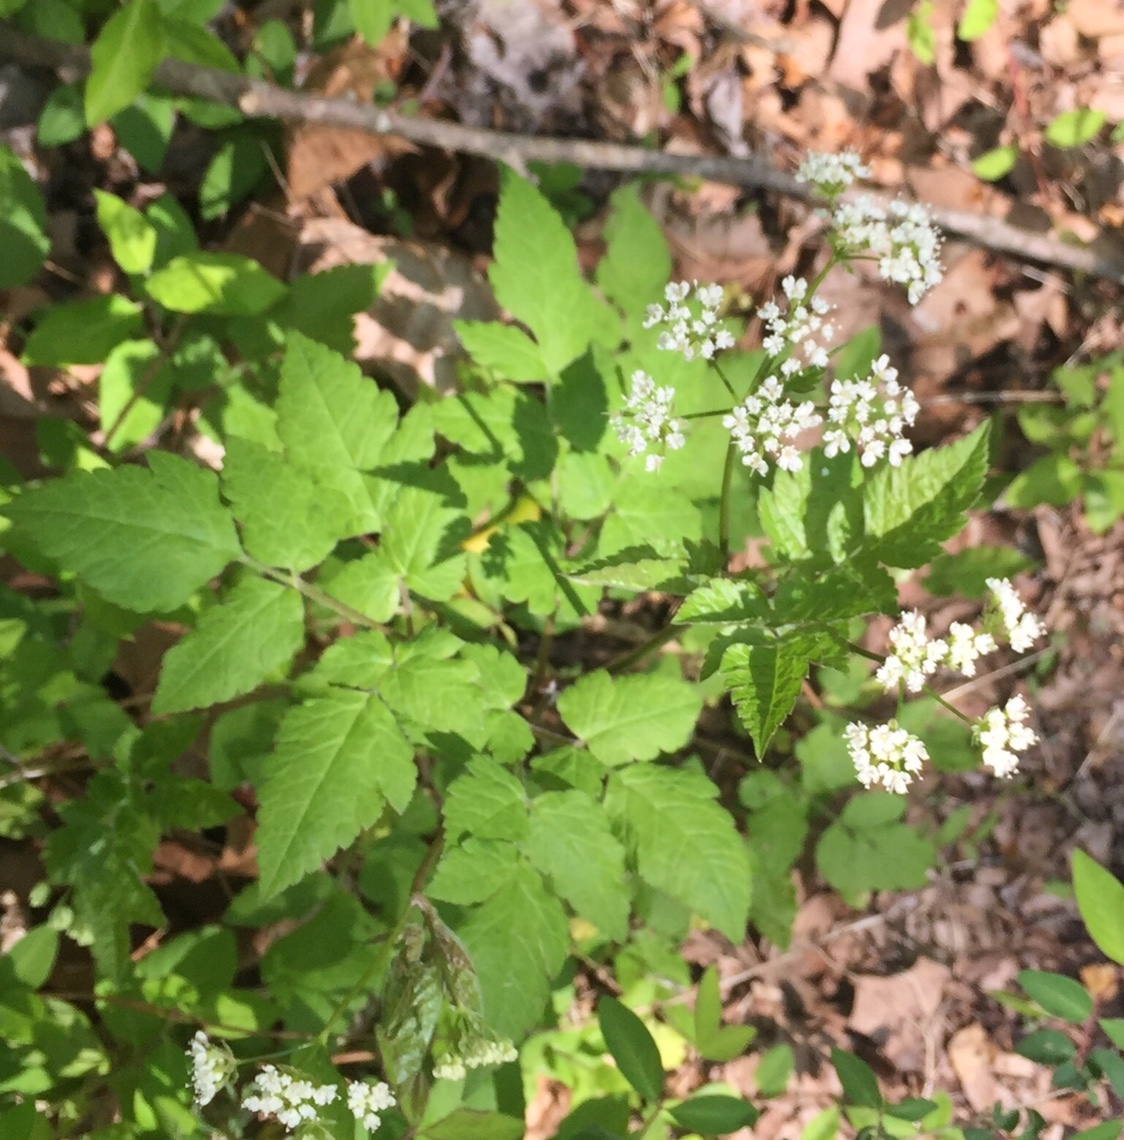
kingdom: Plantae
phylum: Tracheophyta
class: Magnoliopsida
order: Apiales
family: Apiaceae
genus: Osmorhiza
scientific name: Osmorhiza longistylis
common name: Smooth sweet cicely
